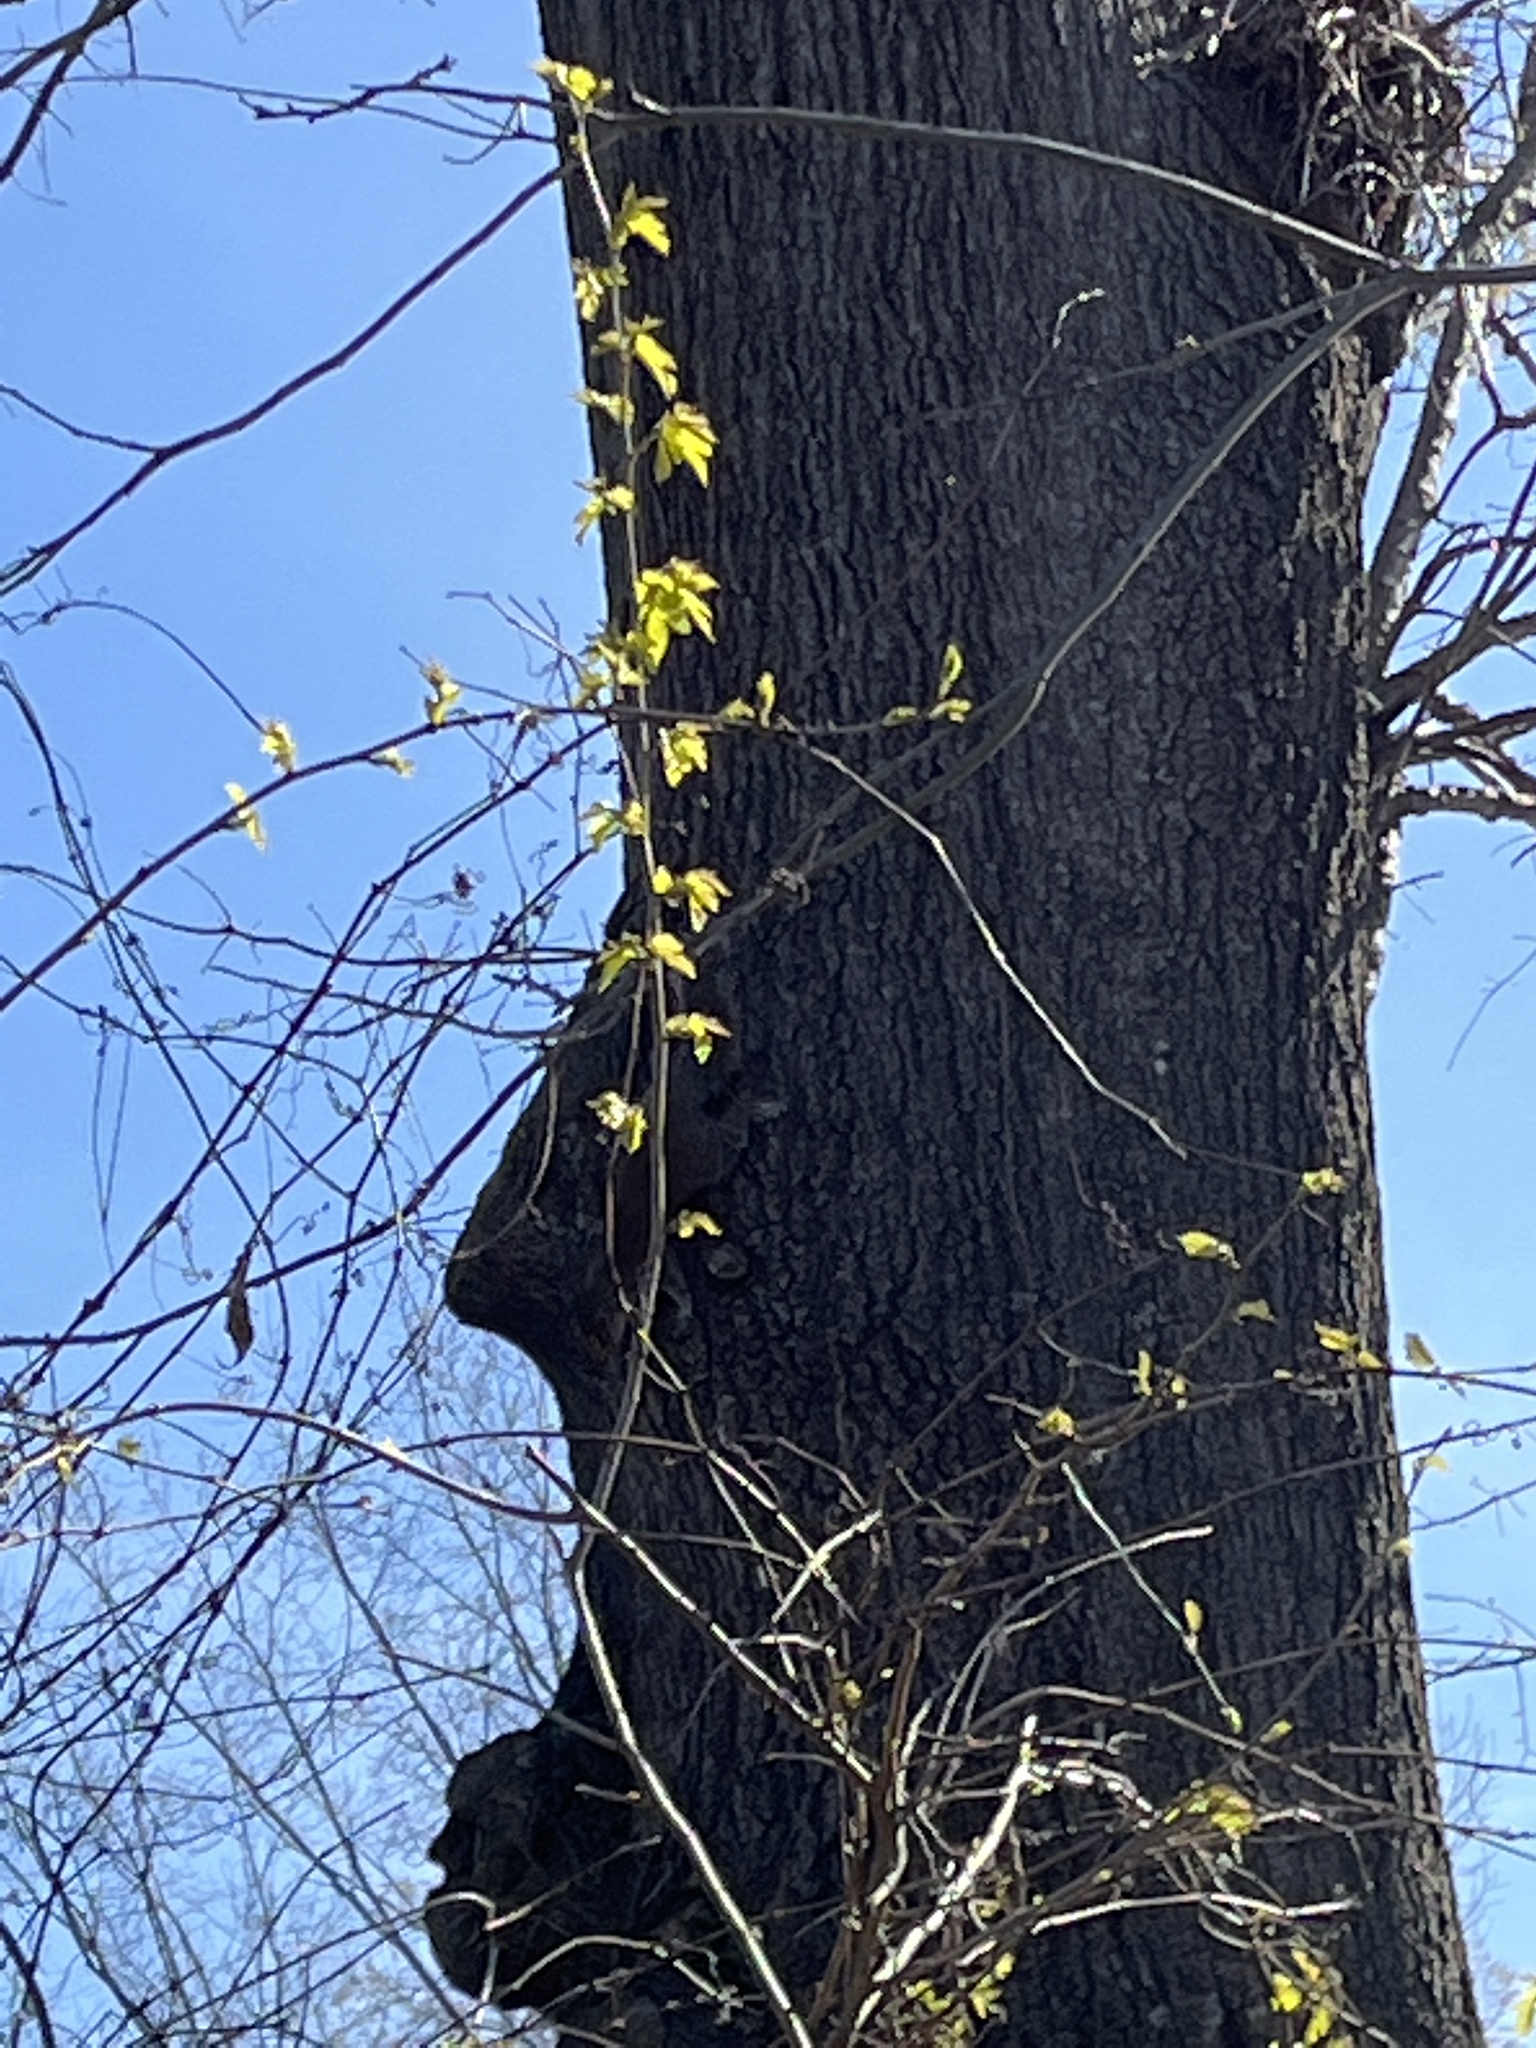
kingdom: Animalia
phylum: Chordata
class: Mammalia
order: Rodentia
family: Sciuridae
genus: Sciurus
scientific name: Sciurus carolinensis
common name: Eastern gray squirrel
